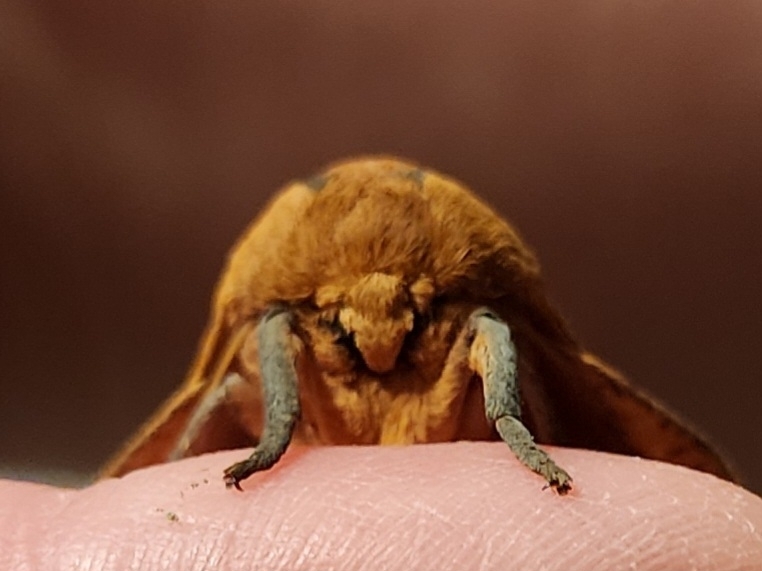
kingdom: Animalia
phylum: Arthropoda
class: Insecta
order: Lepidoptera
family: Saturniidae
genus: Syssphinx
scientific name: Syssphinx bisecta
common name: Bisected honey locust moth
